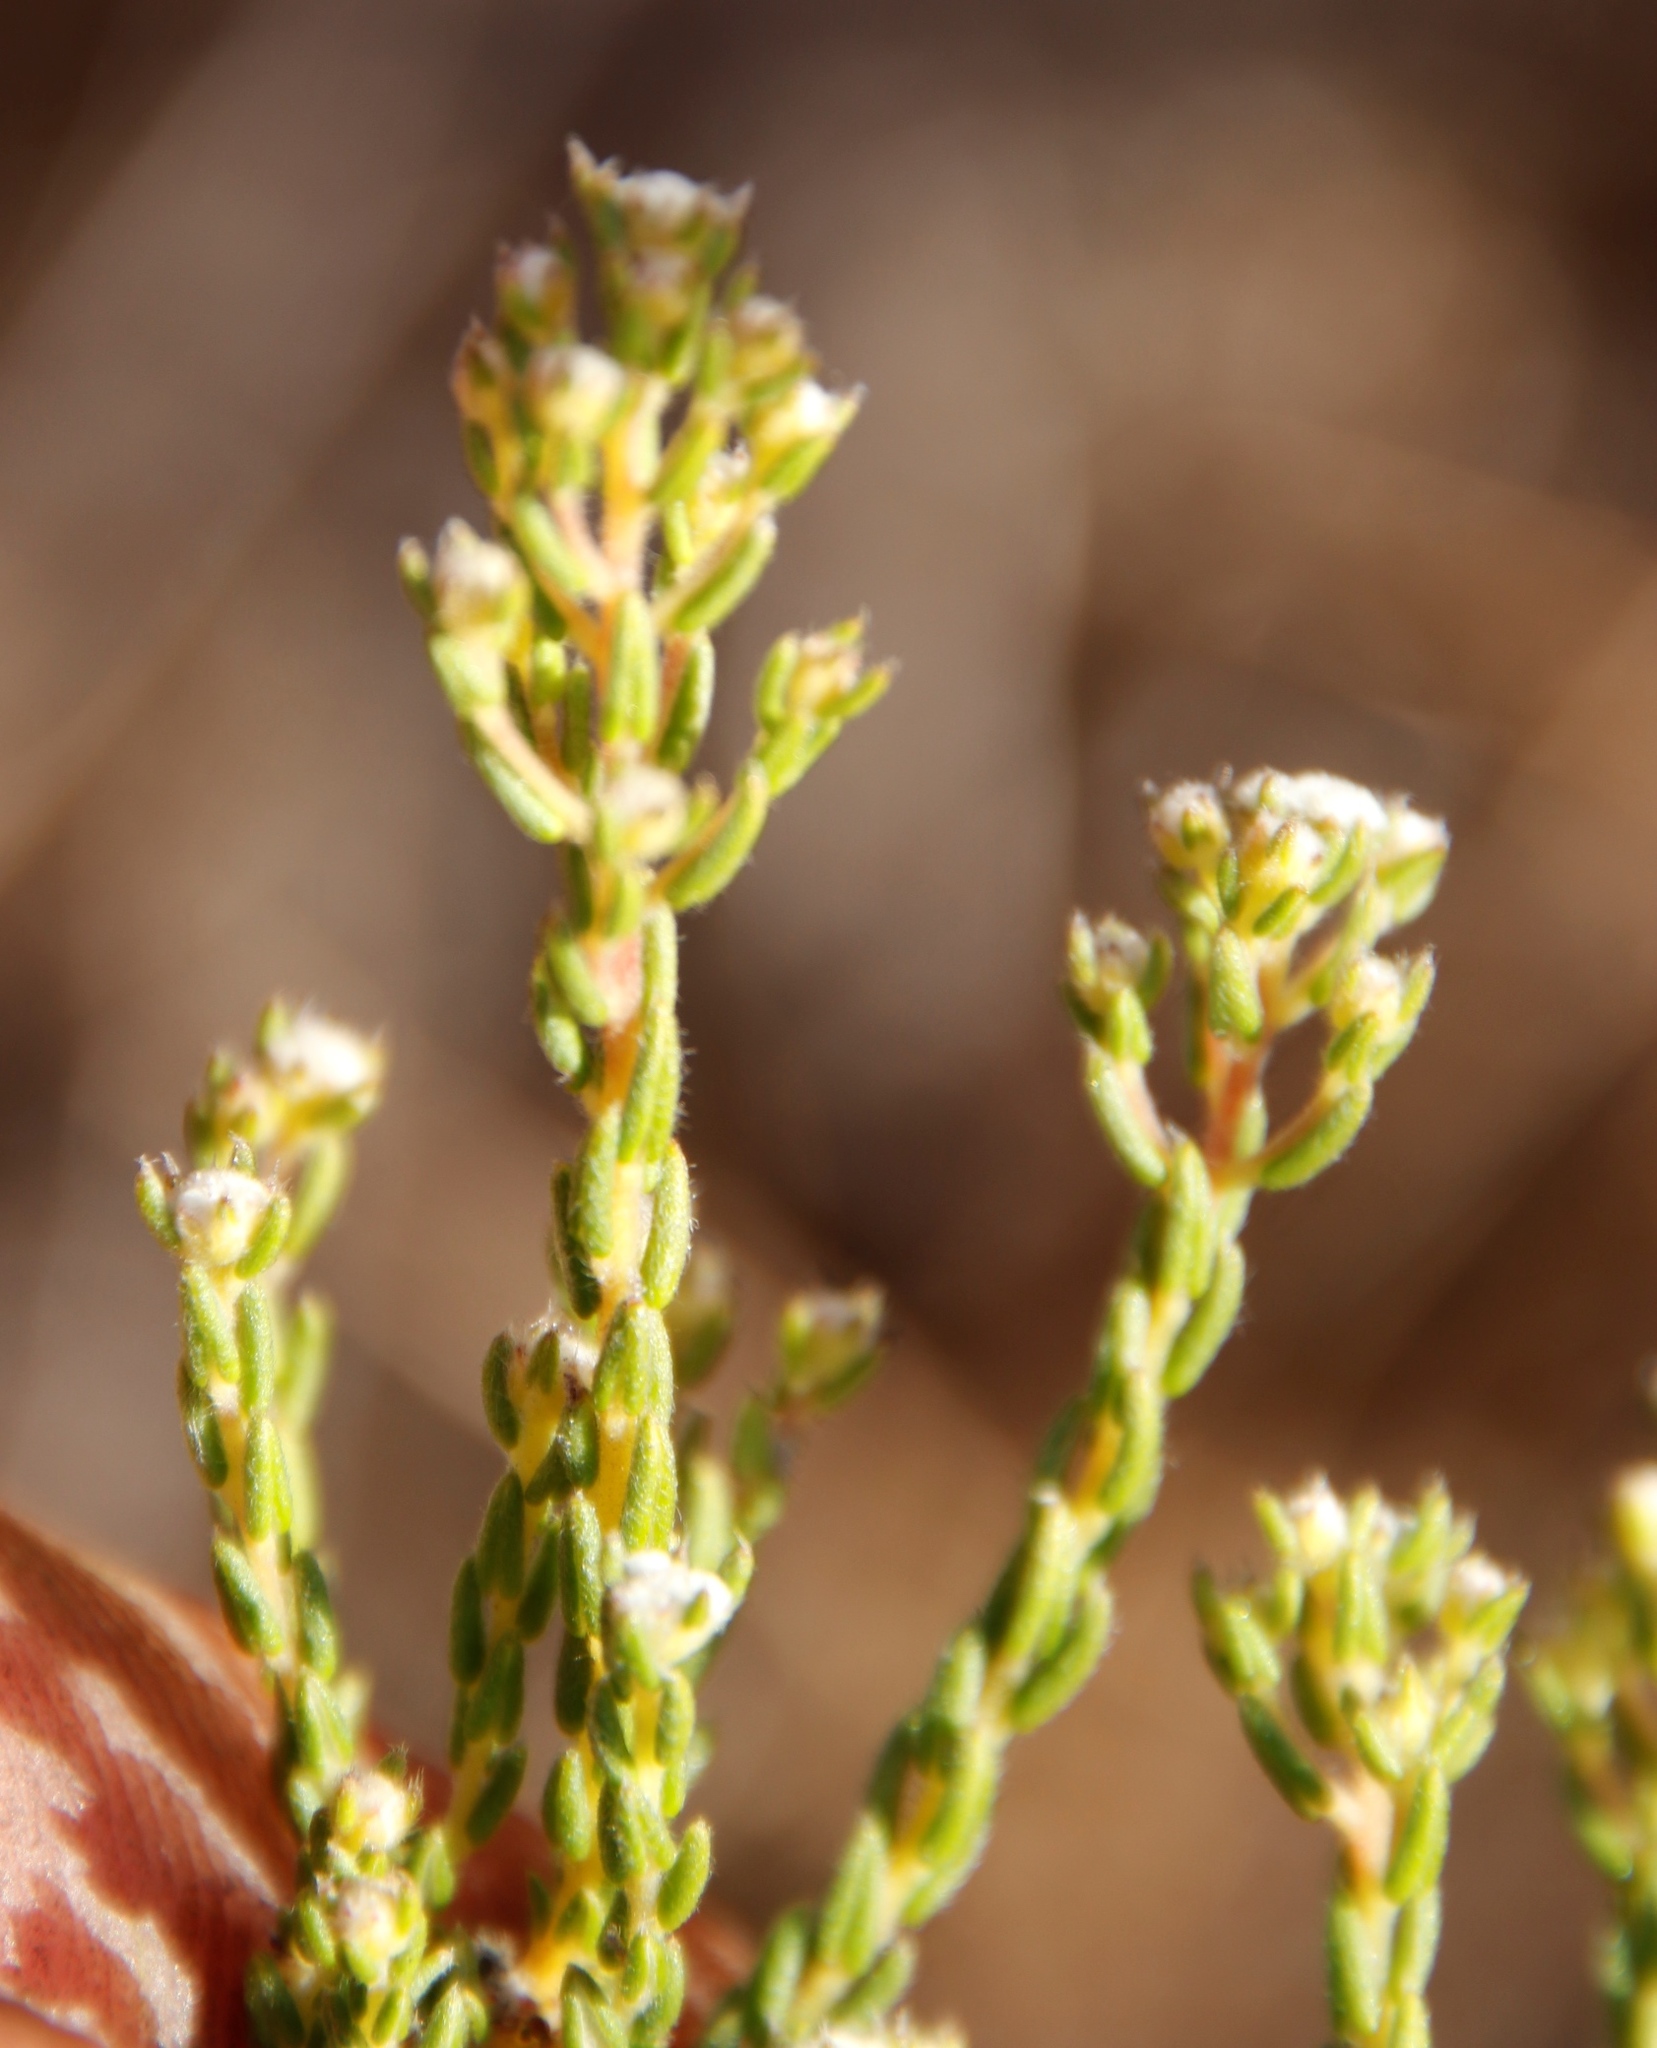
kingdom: Plantae
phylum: Tracheophyta
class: Magnoliopsida
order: Rosales
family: Rhamnaceae
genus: Phylica
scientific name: Phylica parviflora
